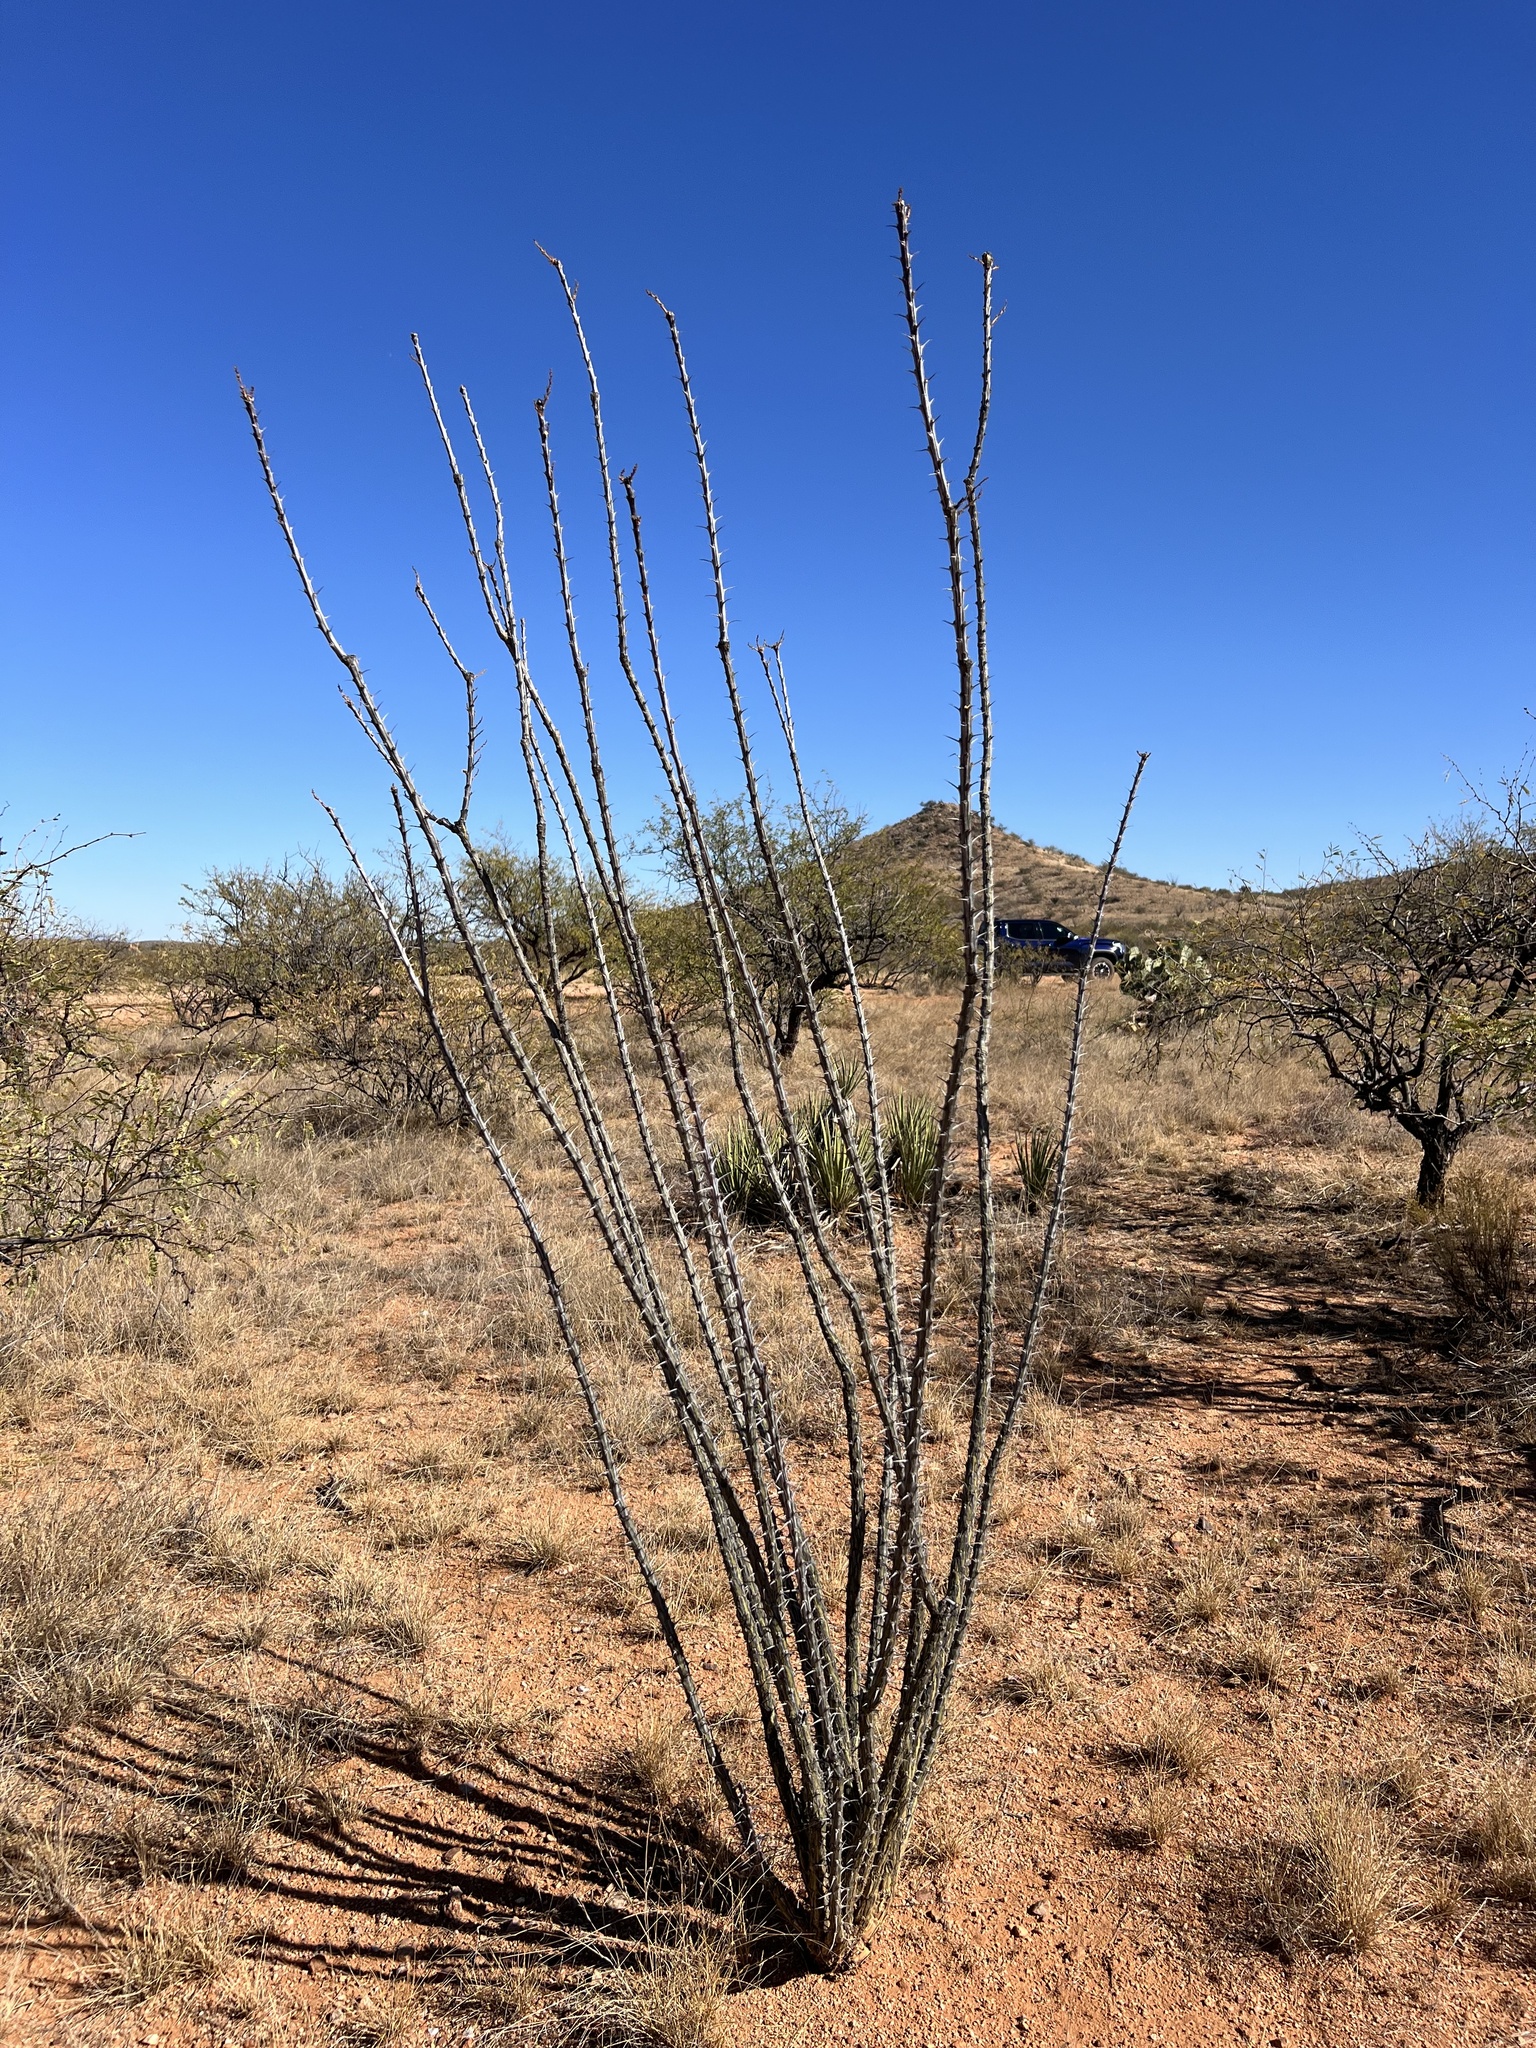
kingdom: Plantae
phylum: Tracheophyta
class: Magnoliopsida
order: Ericales
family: Fouquieriaceae
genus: Fouquieria
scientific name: Fouquieria splendens
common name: Vine-cactus
